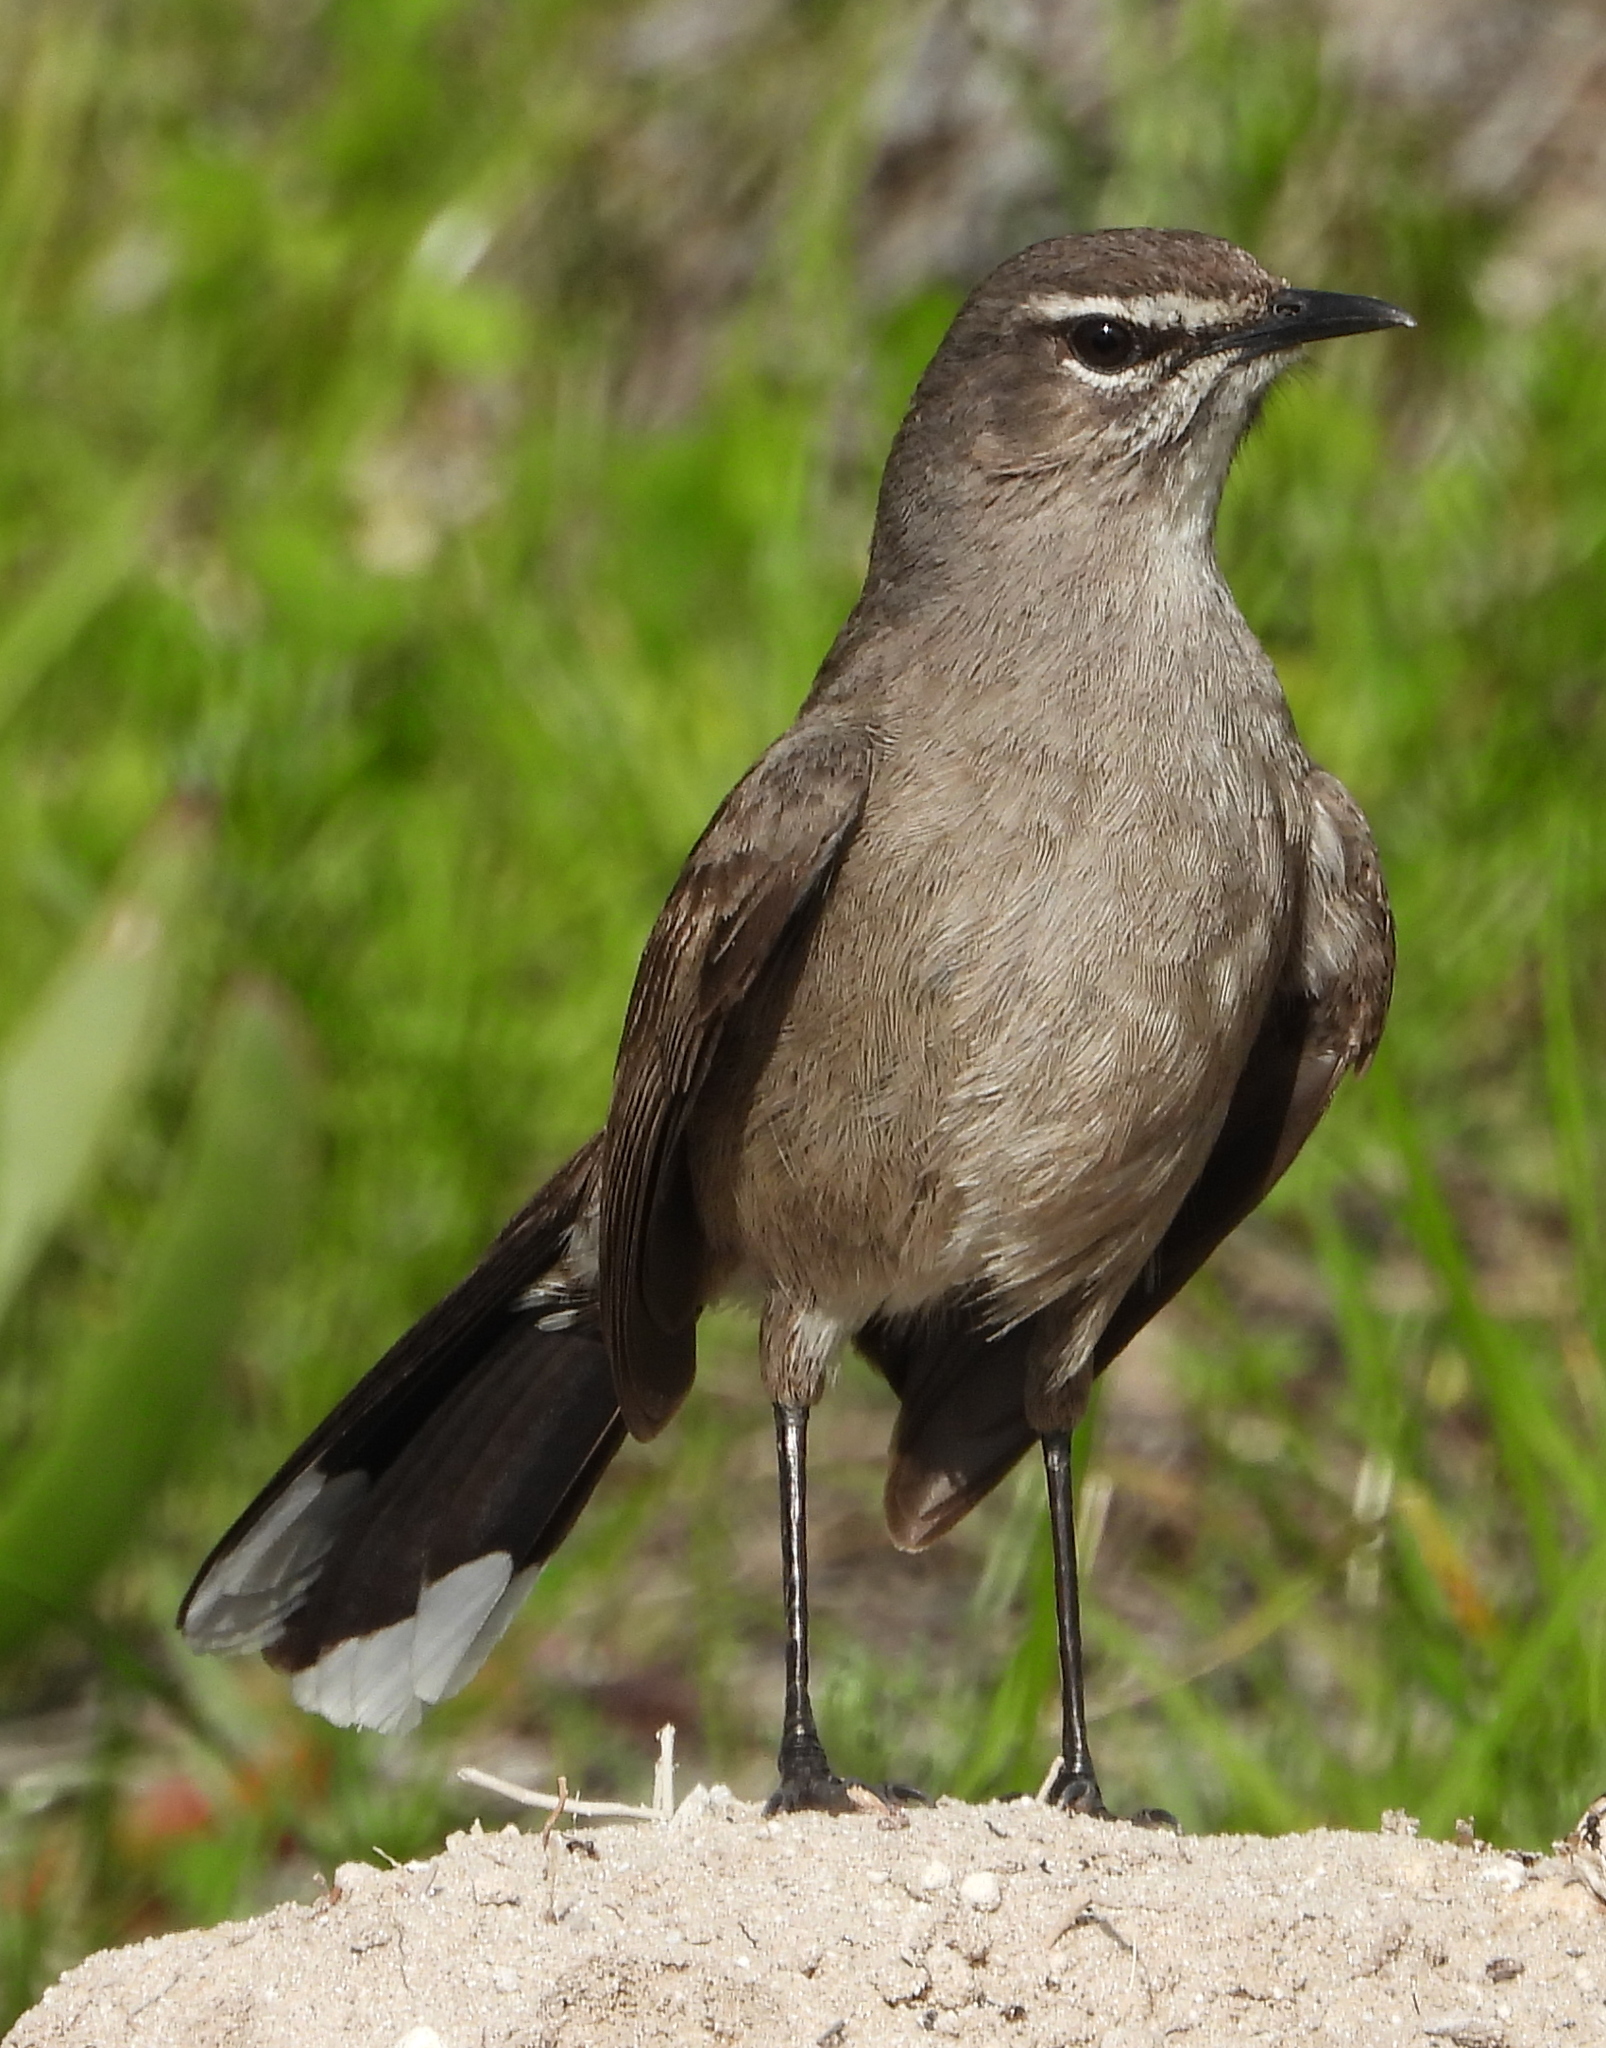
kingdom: Animalia
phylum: Chordata
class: Aves
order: Passeriformes
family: Muscicapidae
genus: Erythropygia
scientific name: Erythropygia coryphoeus
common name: Karoo scrub robin
